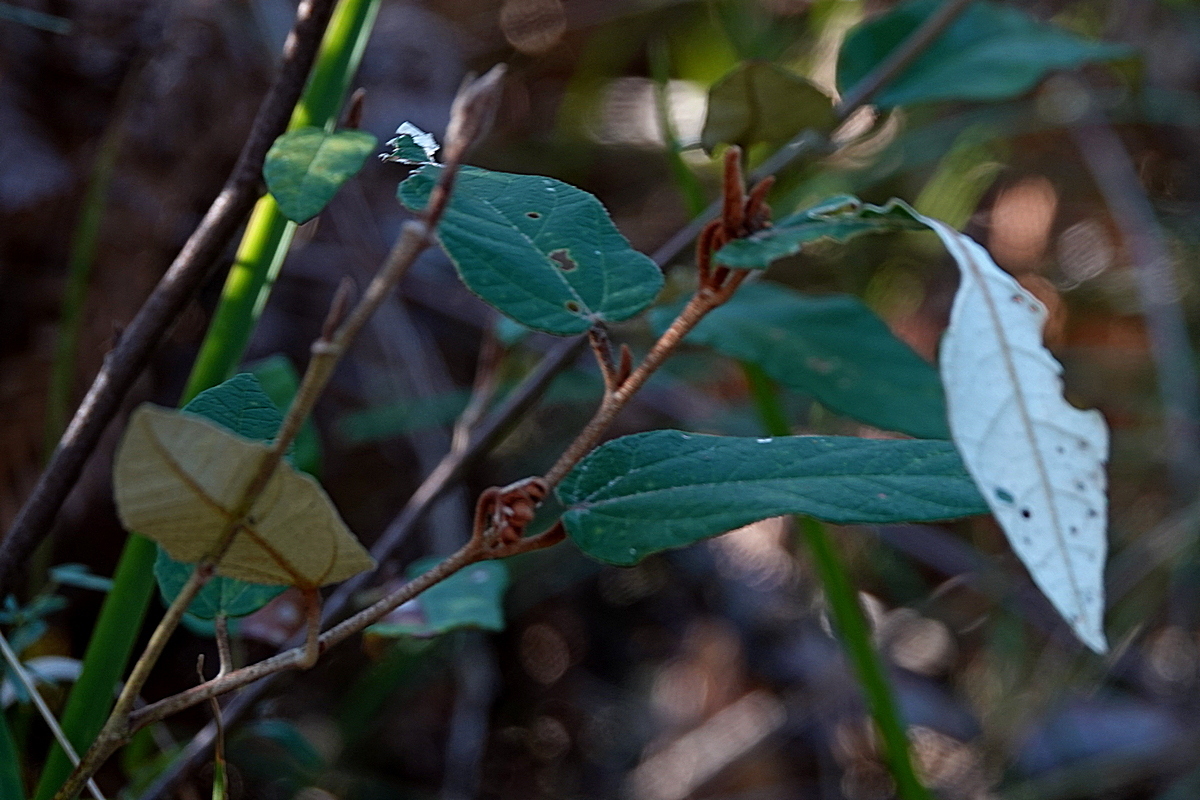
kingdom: Plantae
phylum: Tracheophyta
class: Magnoliopsida
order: Malvales
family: Malvaceae
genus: Lasiopetalum
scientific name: Lasiopetalum macrophyllum
